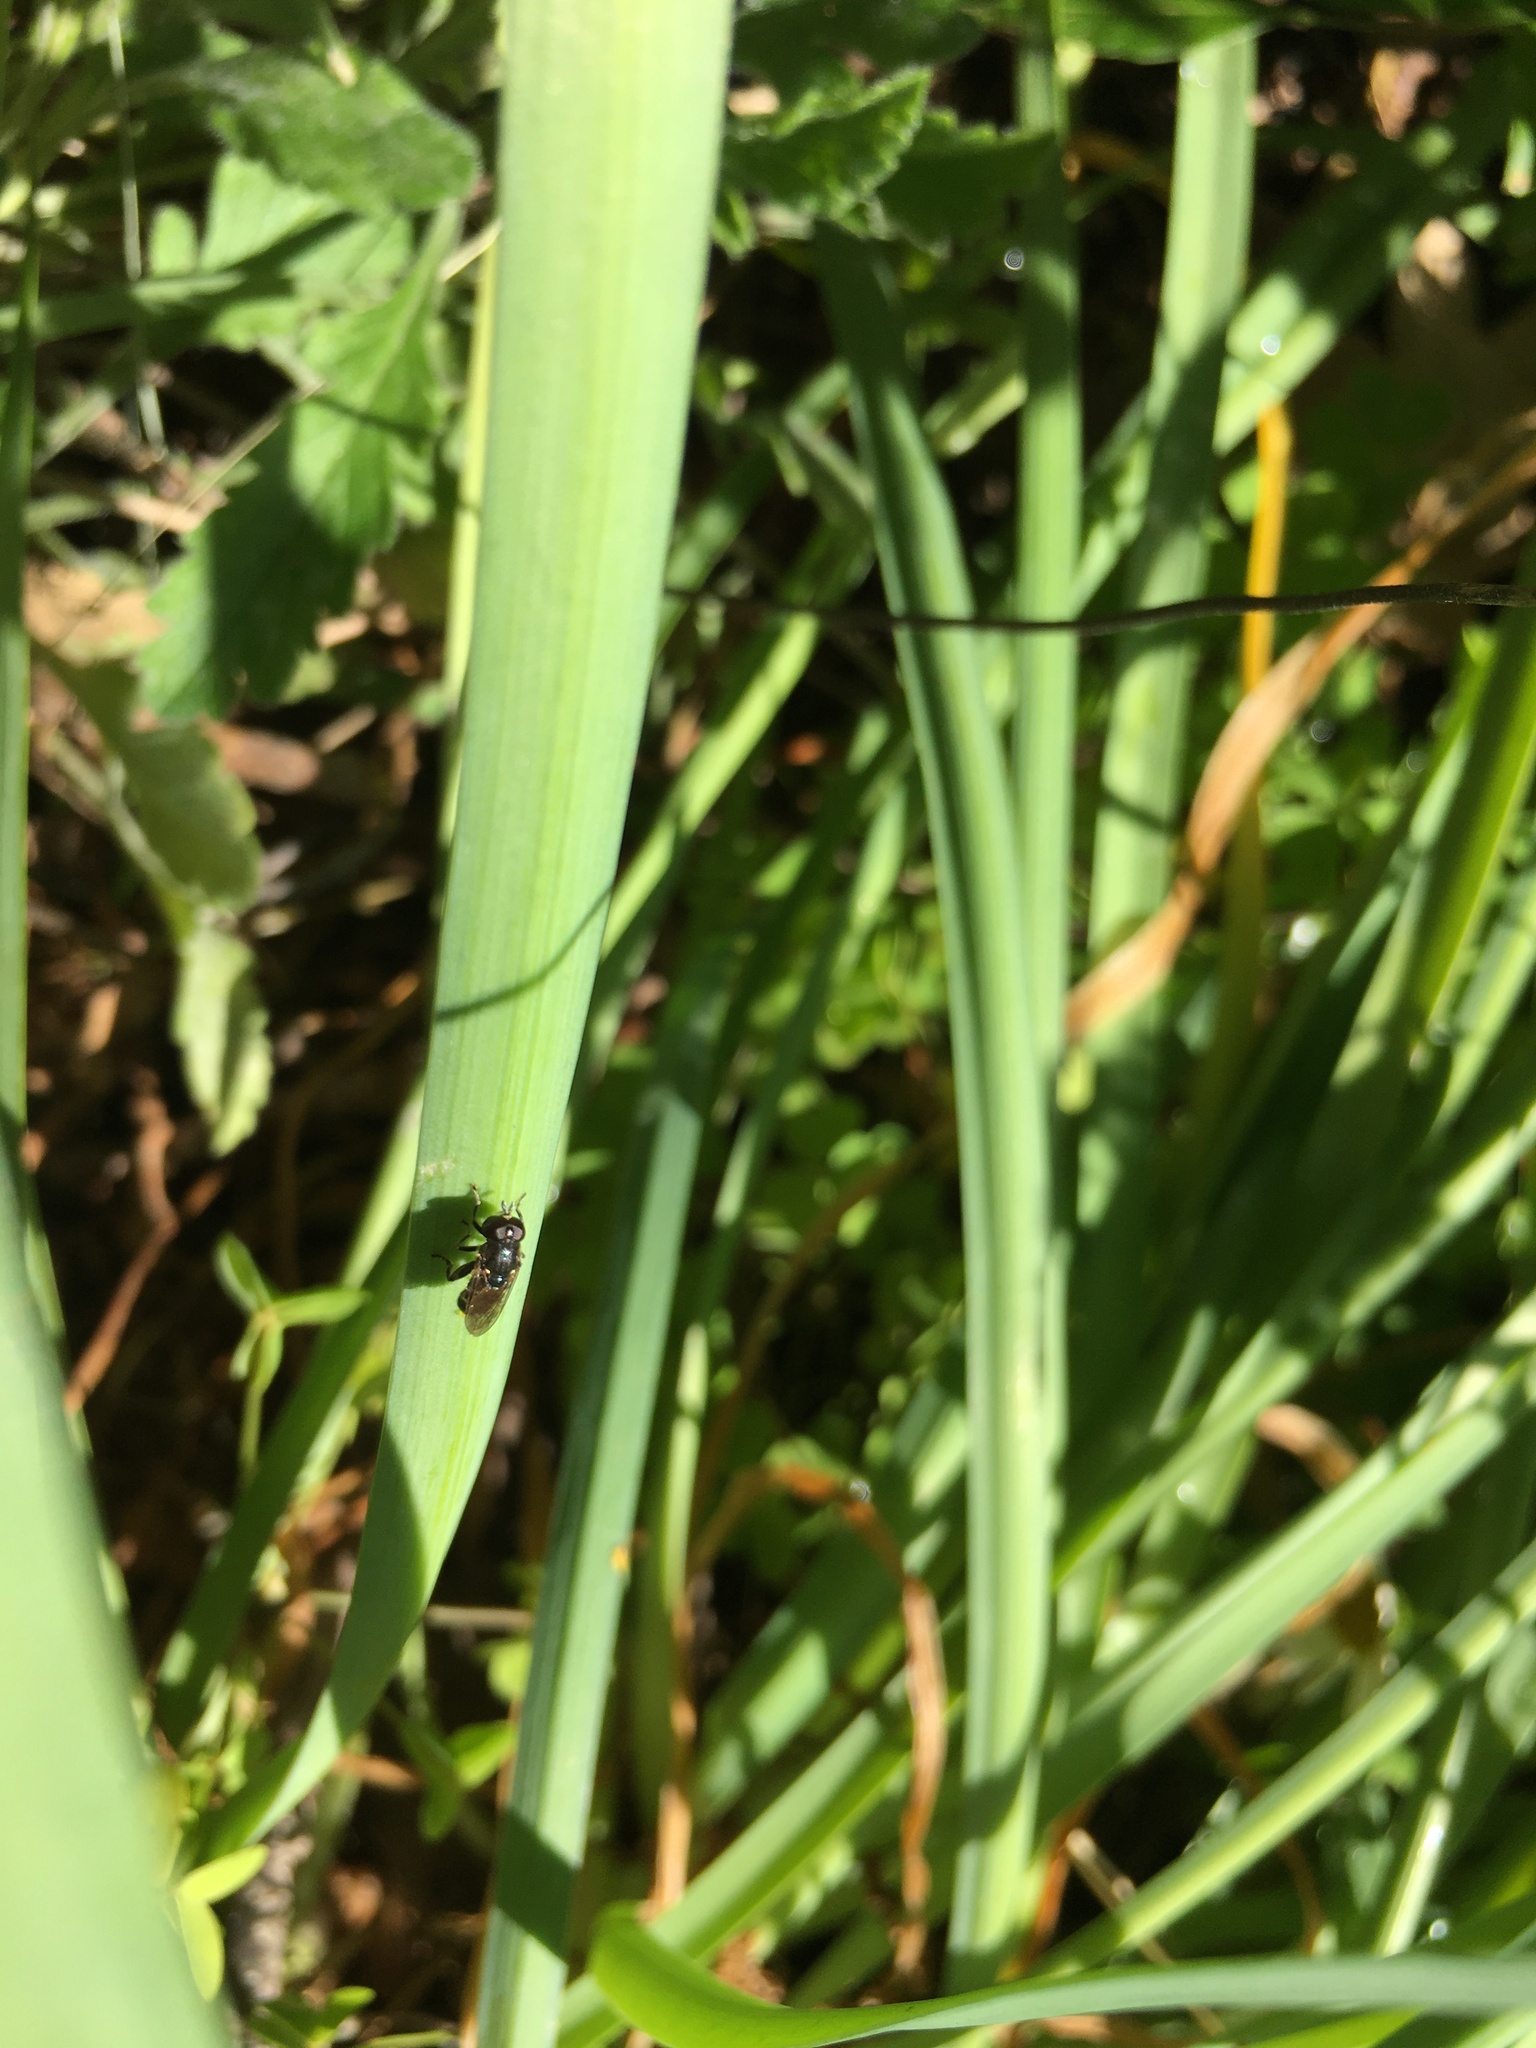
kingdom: Animalia
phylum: Arthropoda
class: Insecta
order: Diptera
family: Syrphidae
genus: Eumerus
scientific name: Eumerus
